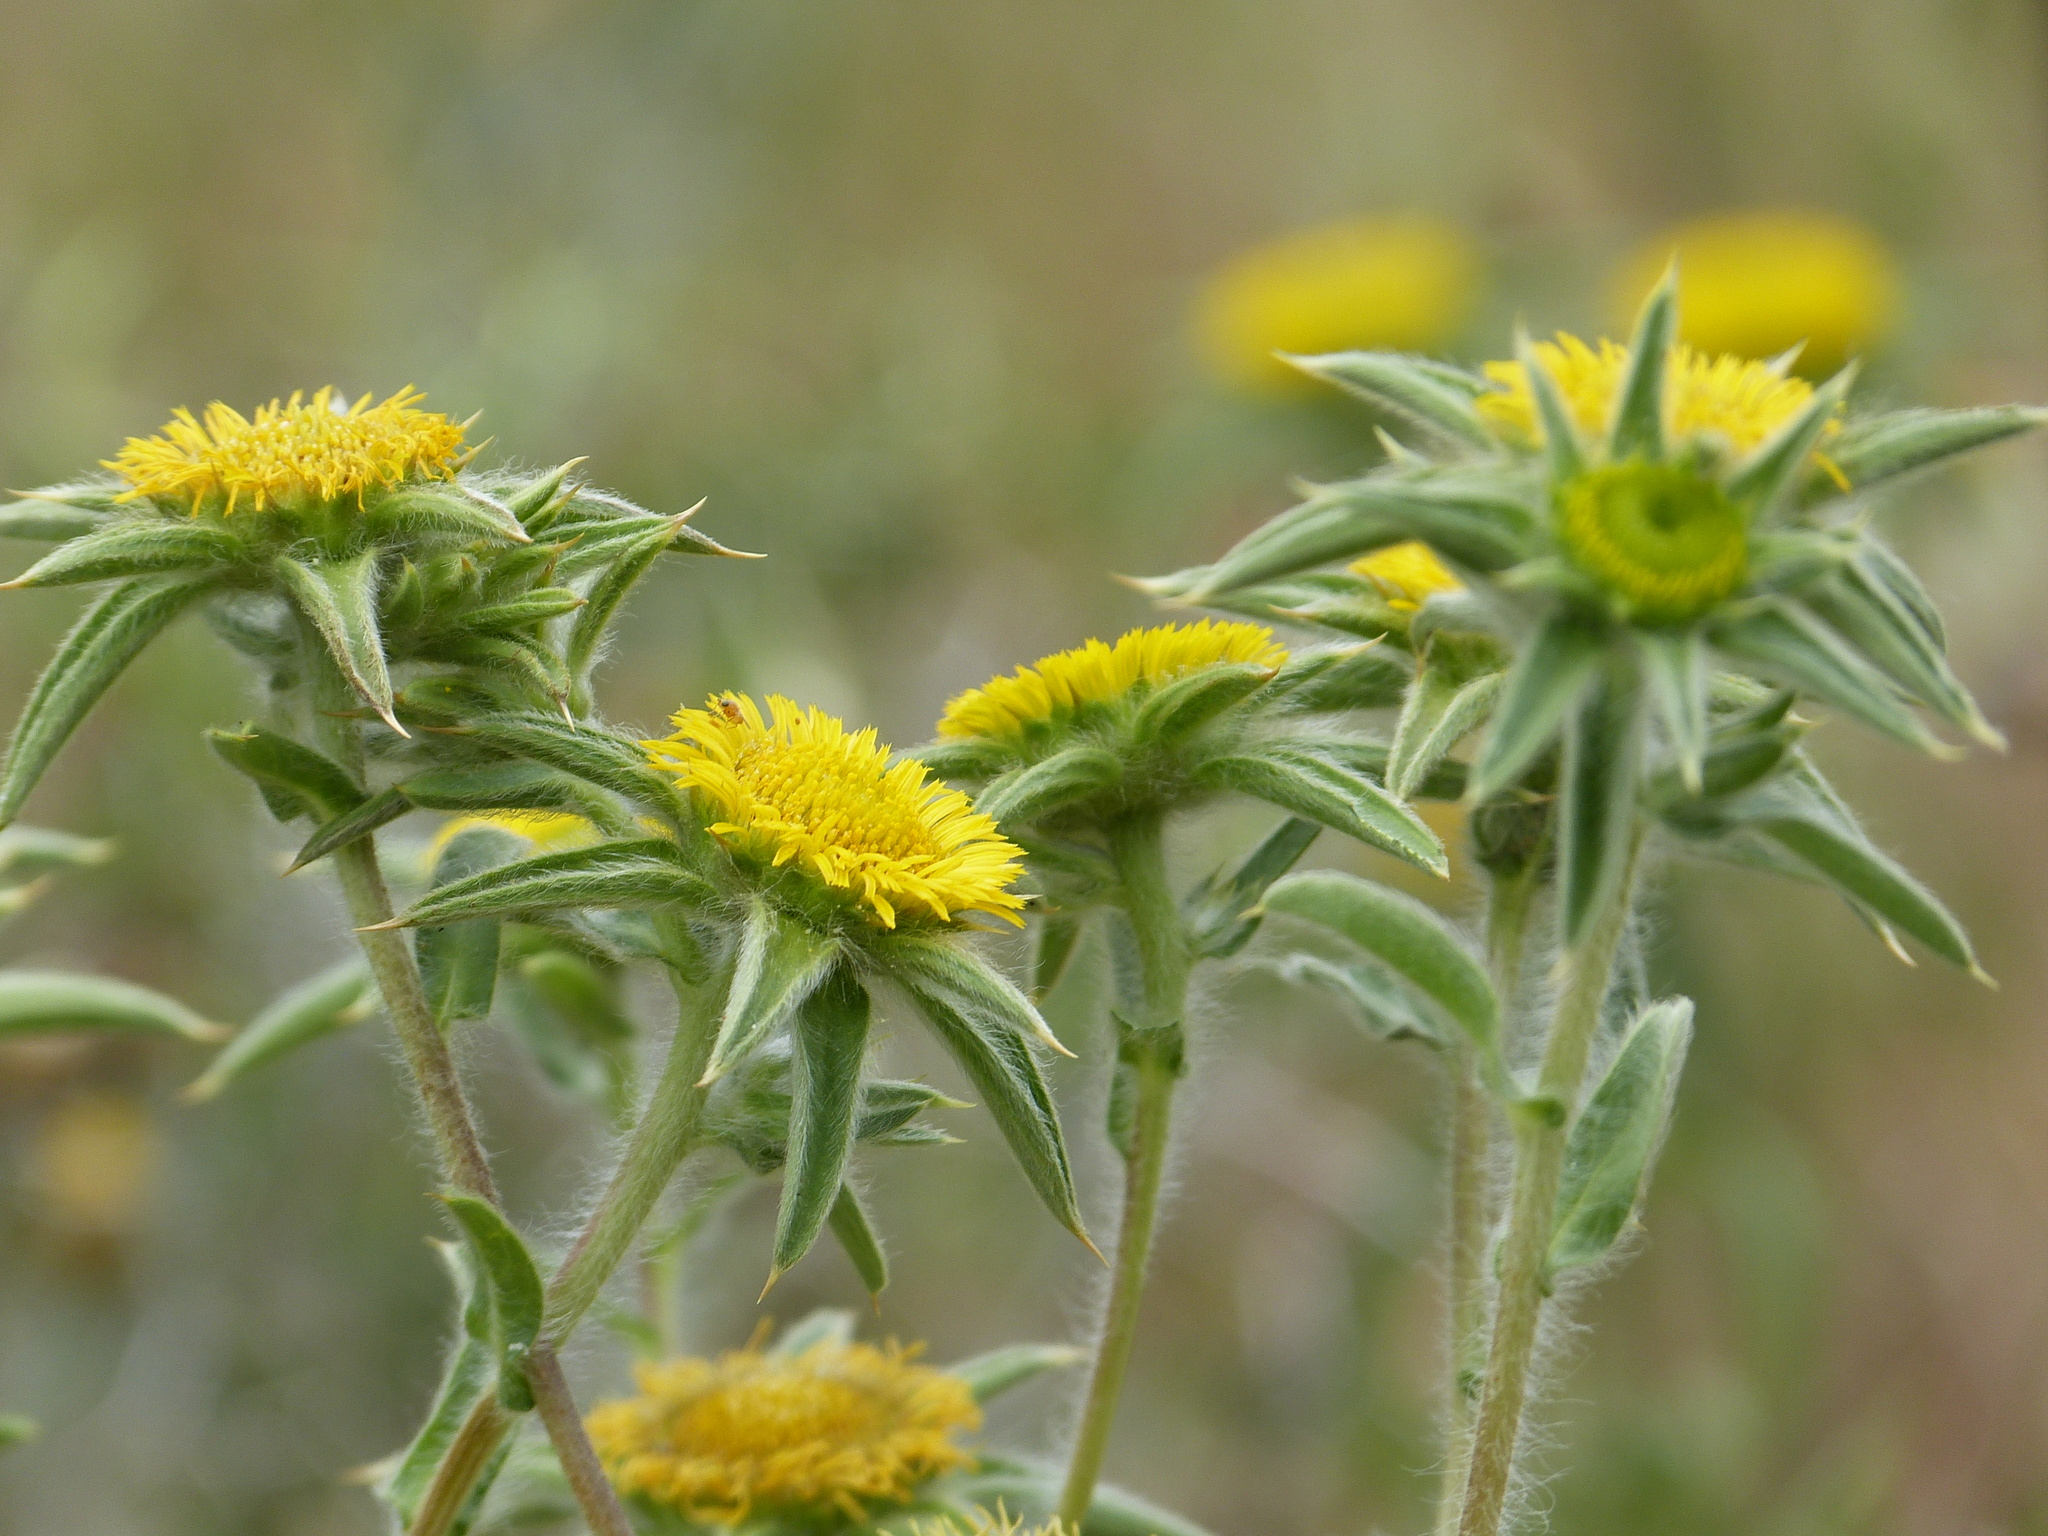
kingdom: Plantae
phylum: Tracheophyta
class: Magnoliopsida
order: Asterales
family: Asteraceae
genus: Pallenis
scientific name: Pallenis spinosa
